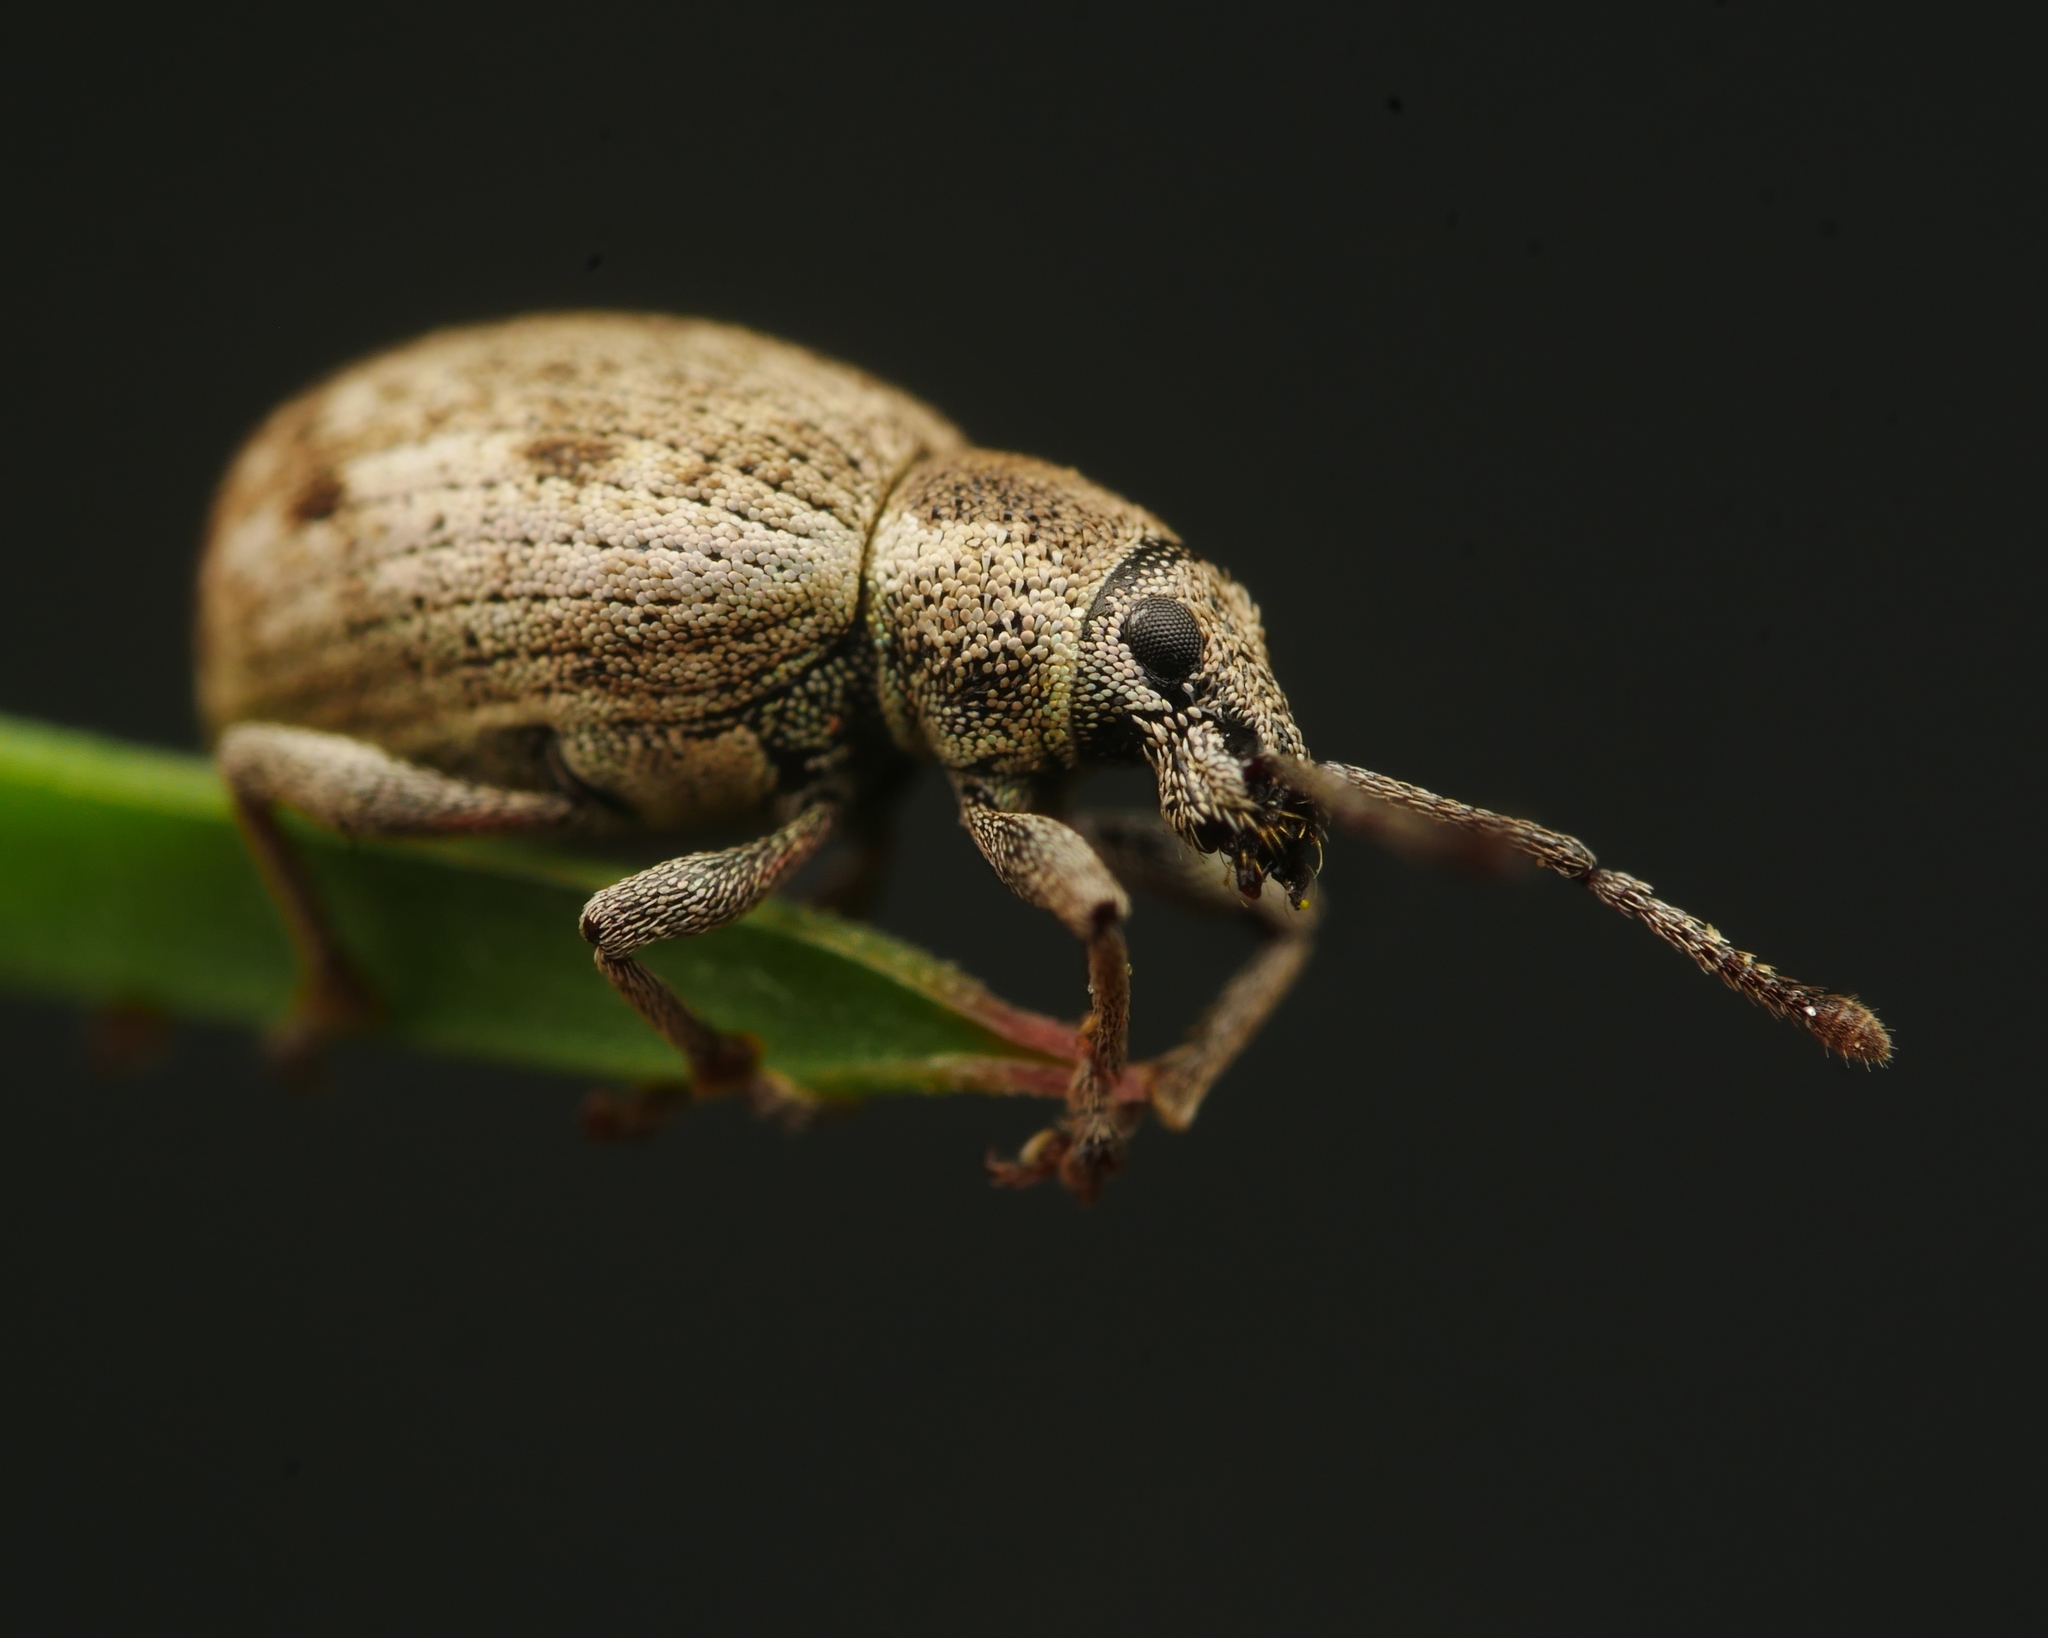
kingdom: Animalia
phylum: Arthropoda
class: Insecta
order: Coleoptera
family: Curculionidae
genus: Peritelus
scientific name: Peritelus sphaeroides
